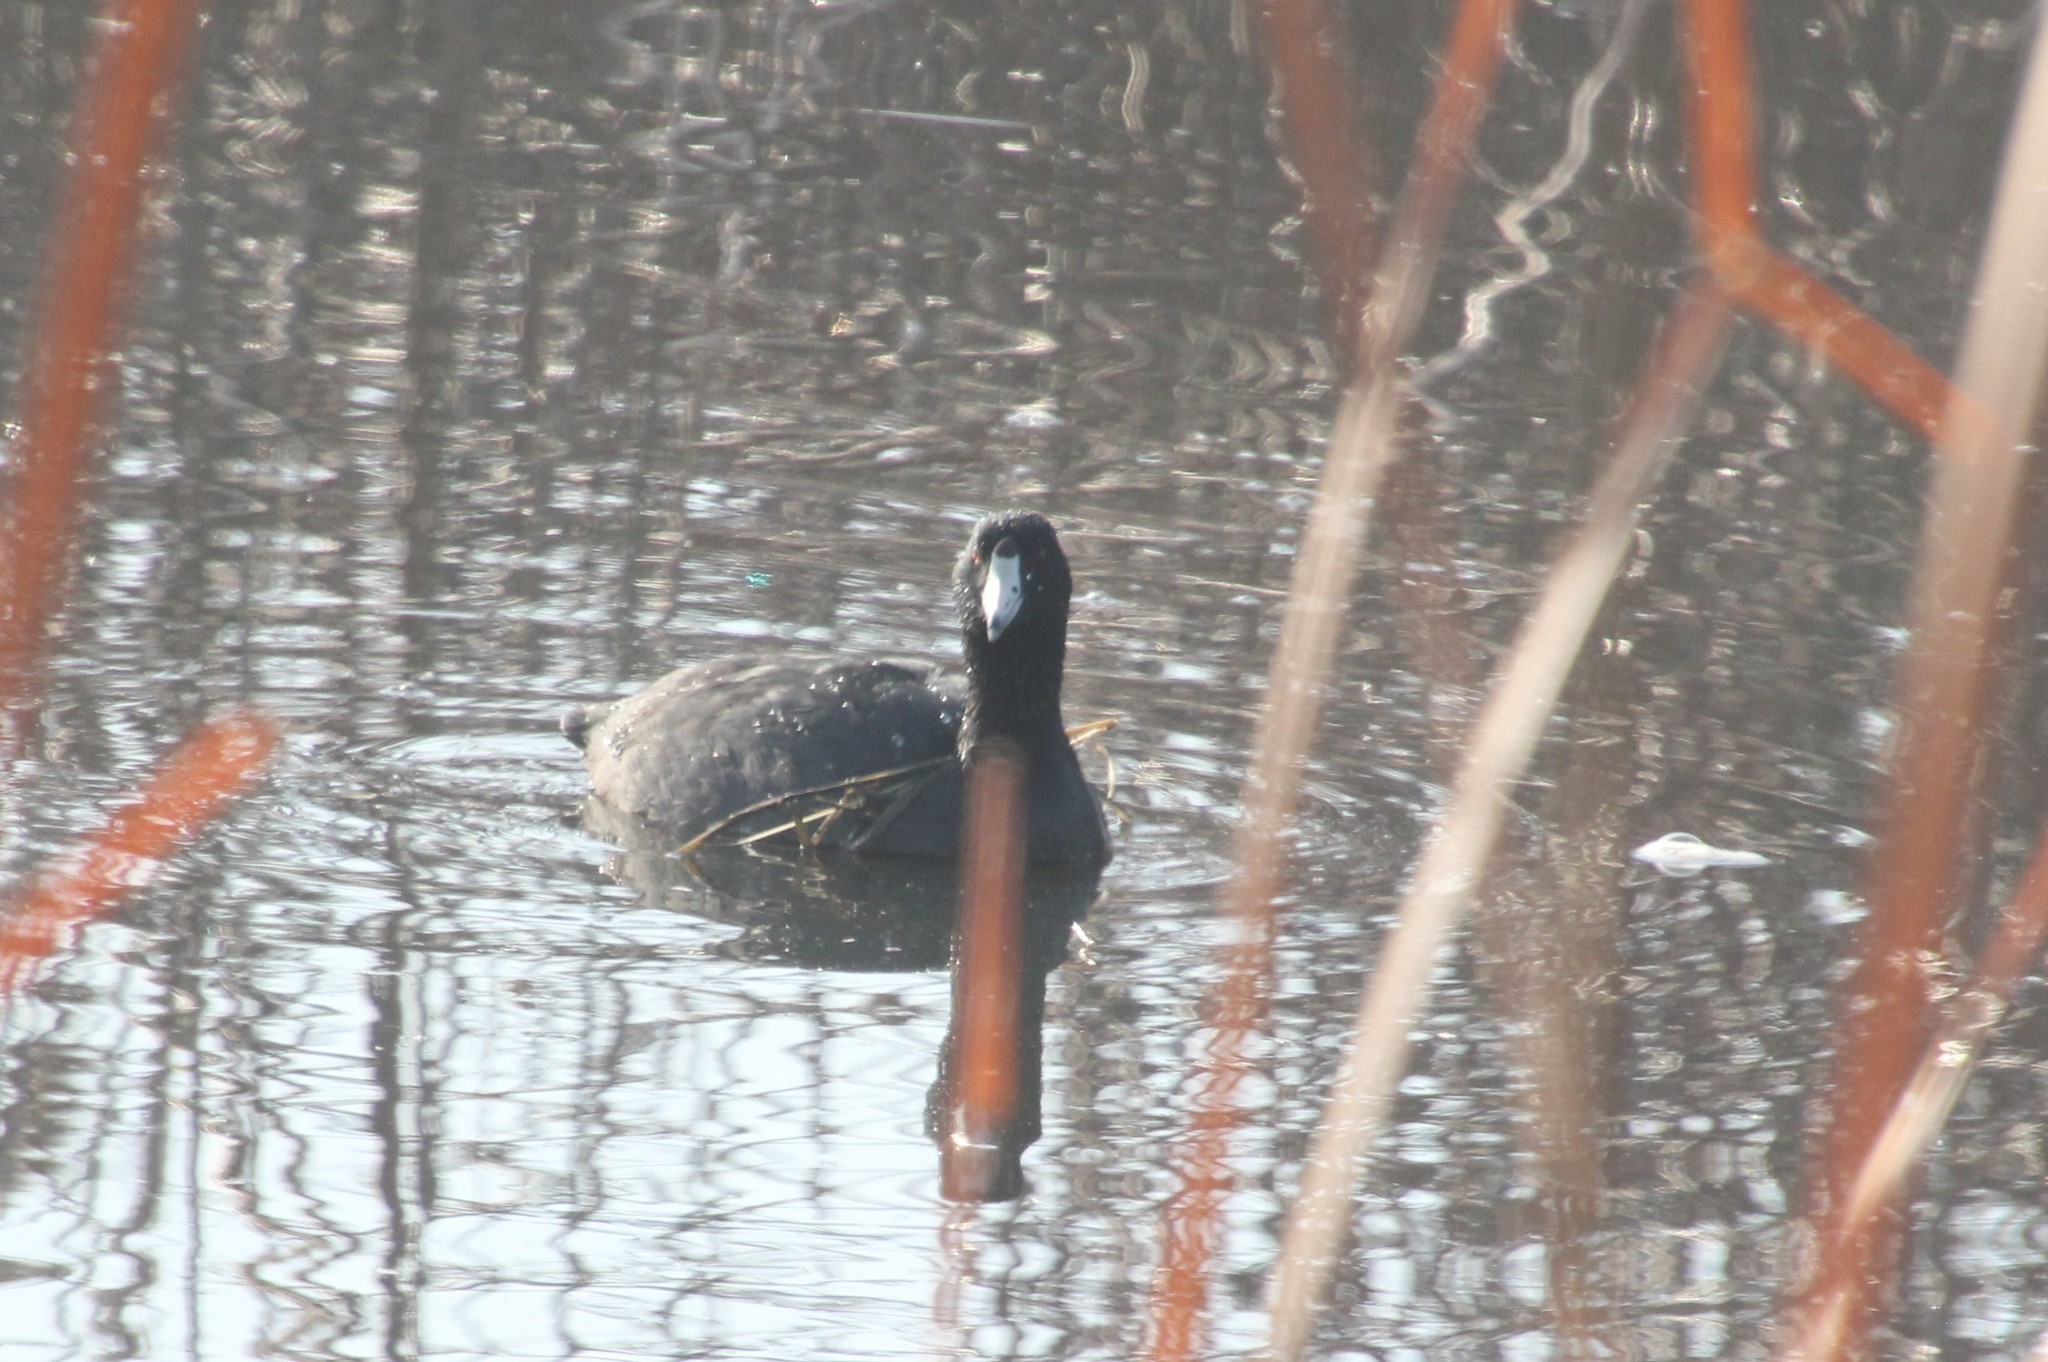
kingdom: Animalia
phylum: Chordata
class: Aves
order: Gruiformes
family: Rallidae
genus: Fulica
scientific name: Fulica americana
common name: American coot
